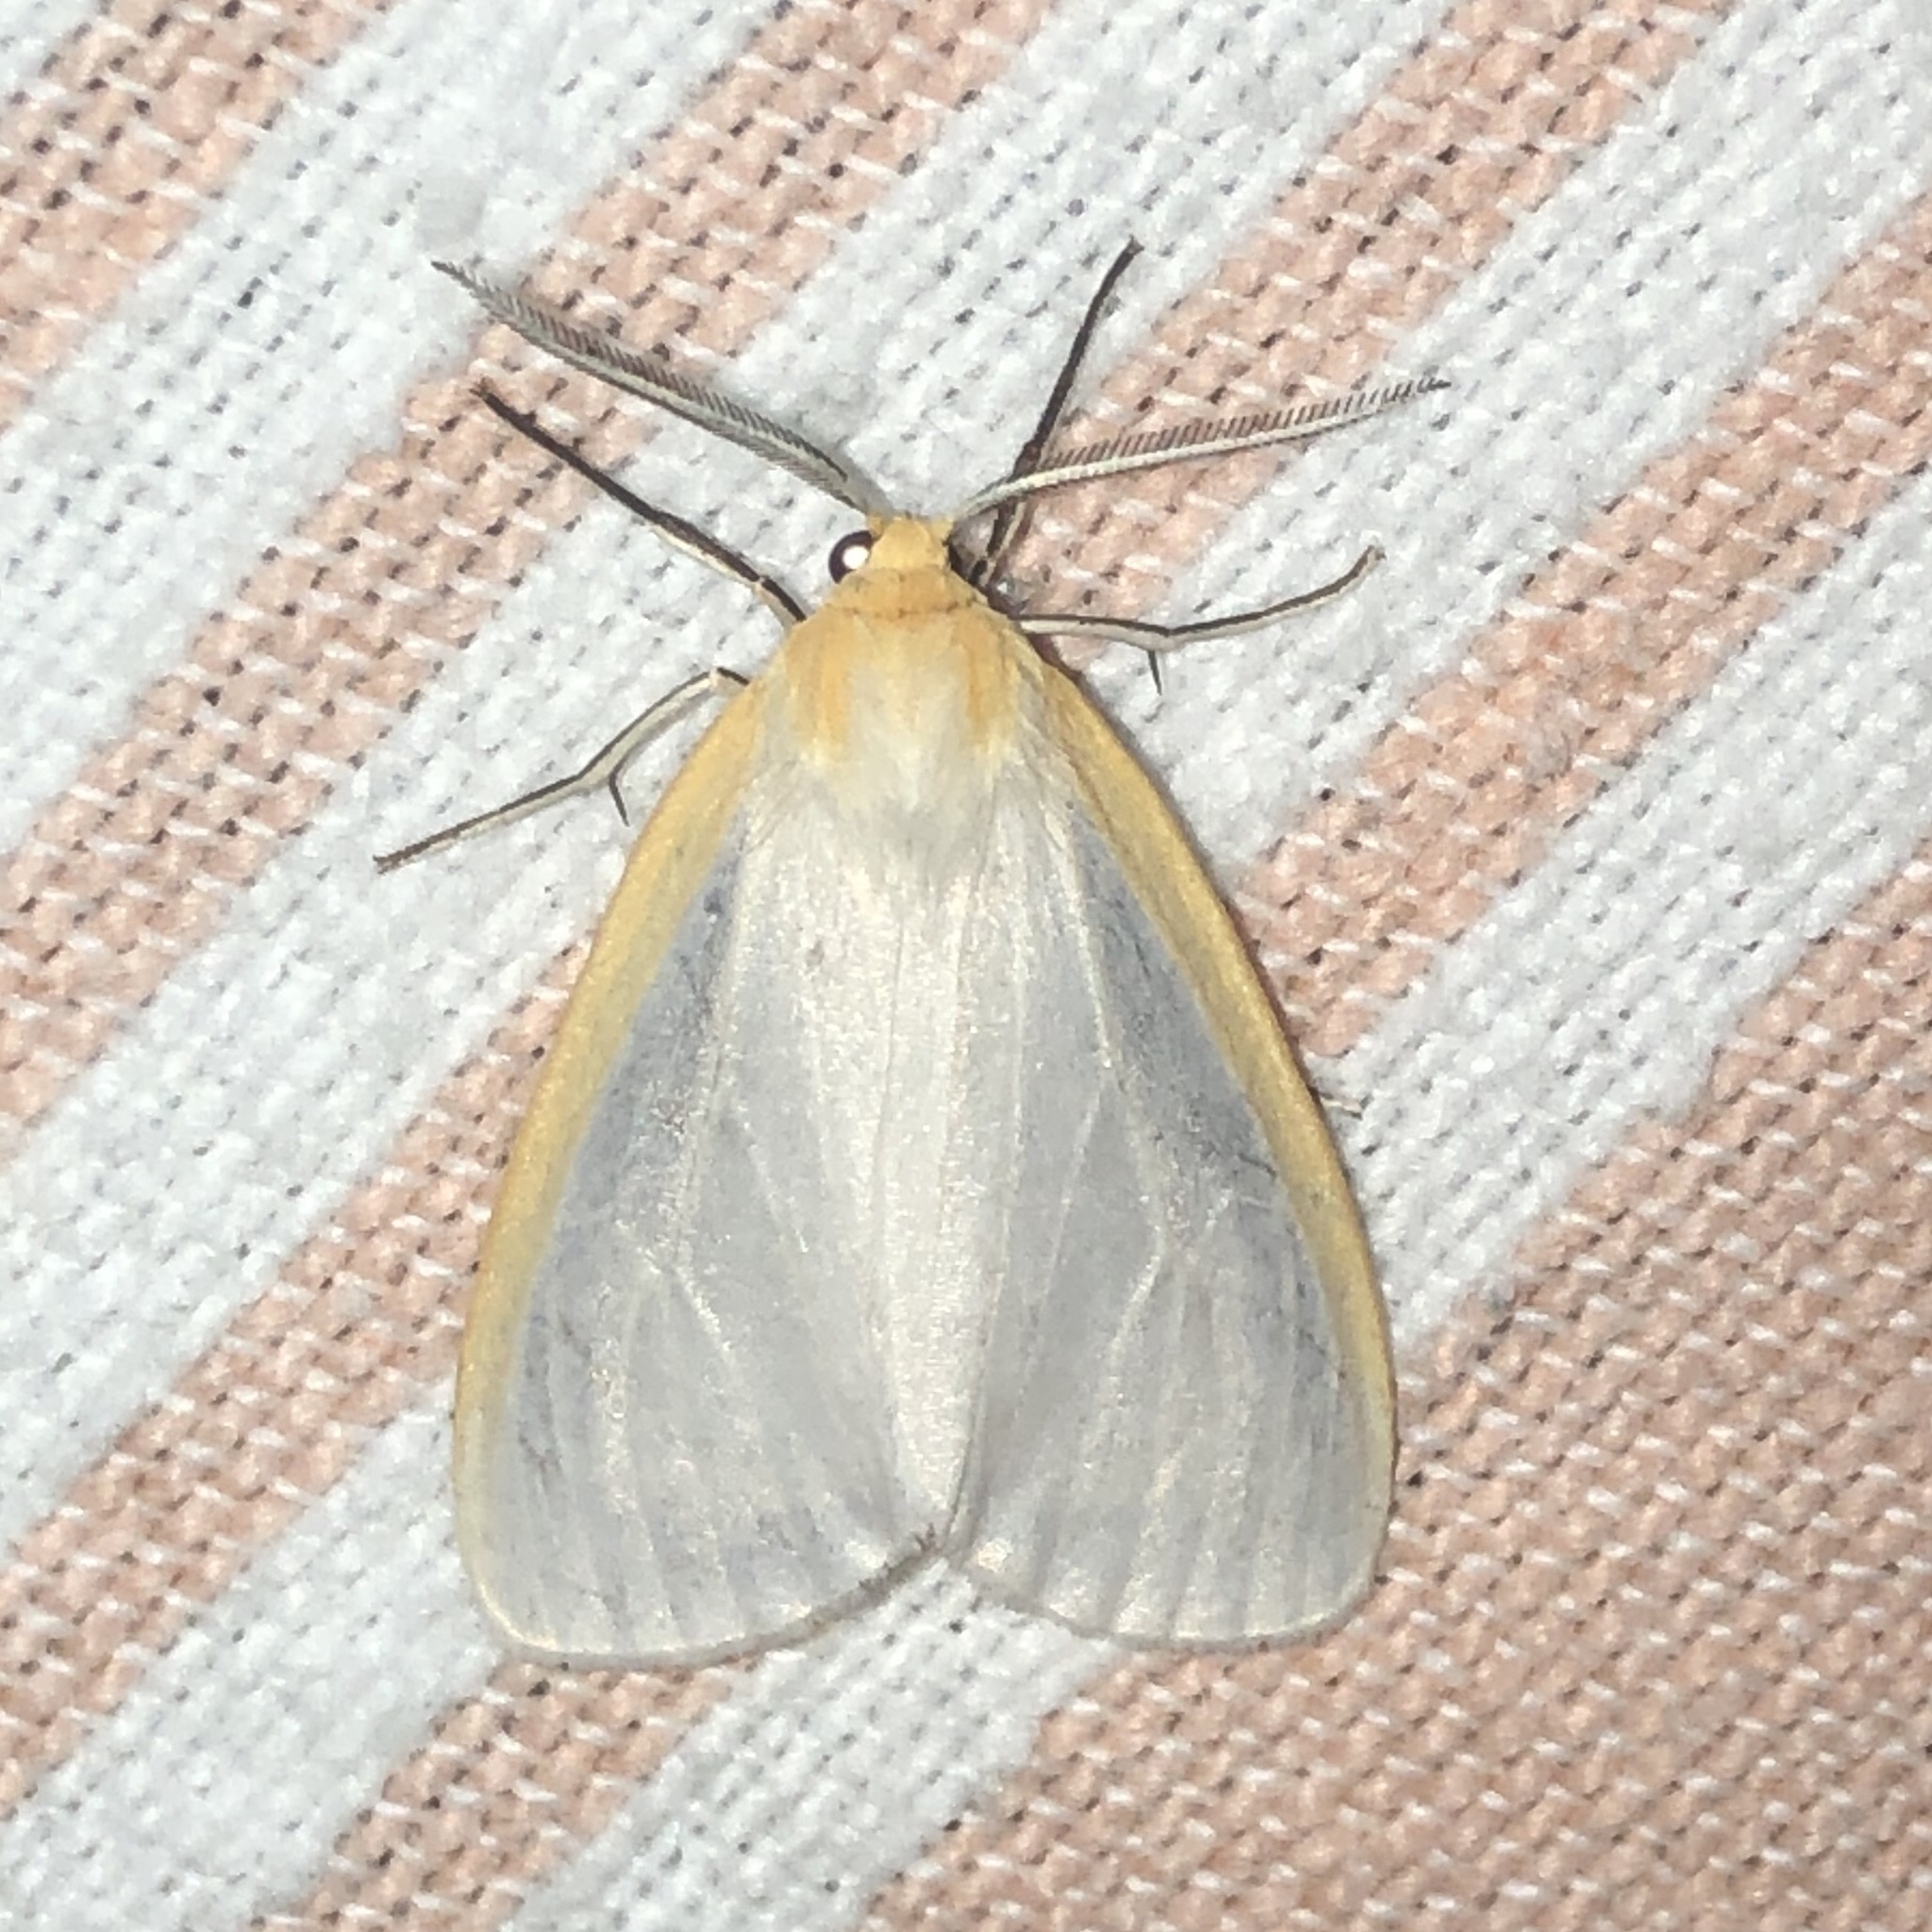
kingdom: Animalia
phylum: Arthropoda
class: Insecta
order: Lepidoptera
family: Erebidae
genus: Cycnia
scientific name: Cycnia tenera
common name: Delicate cycnia moth
